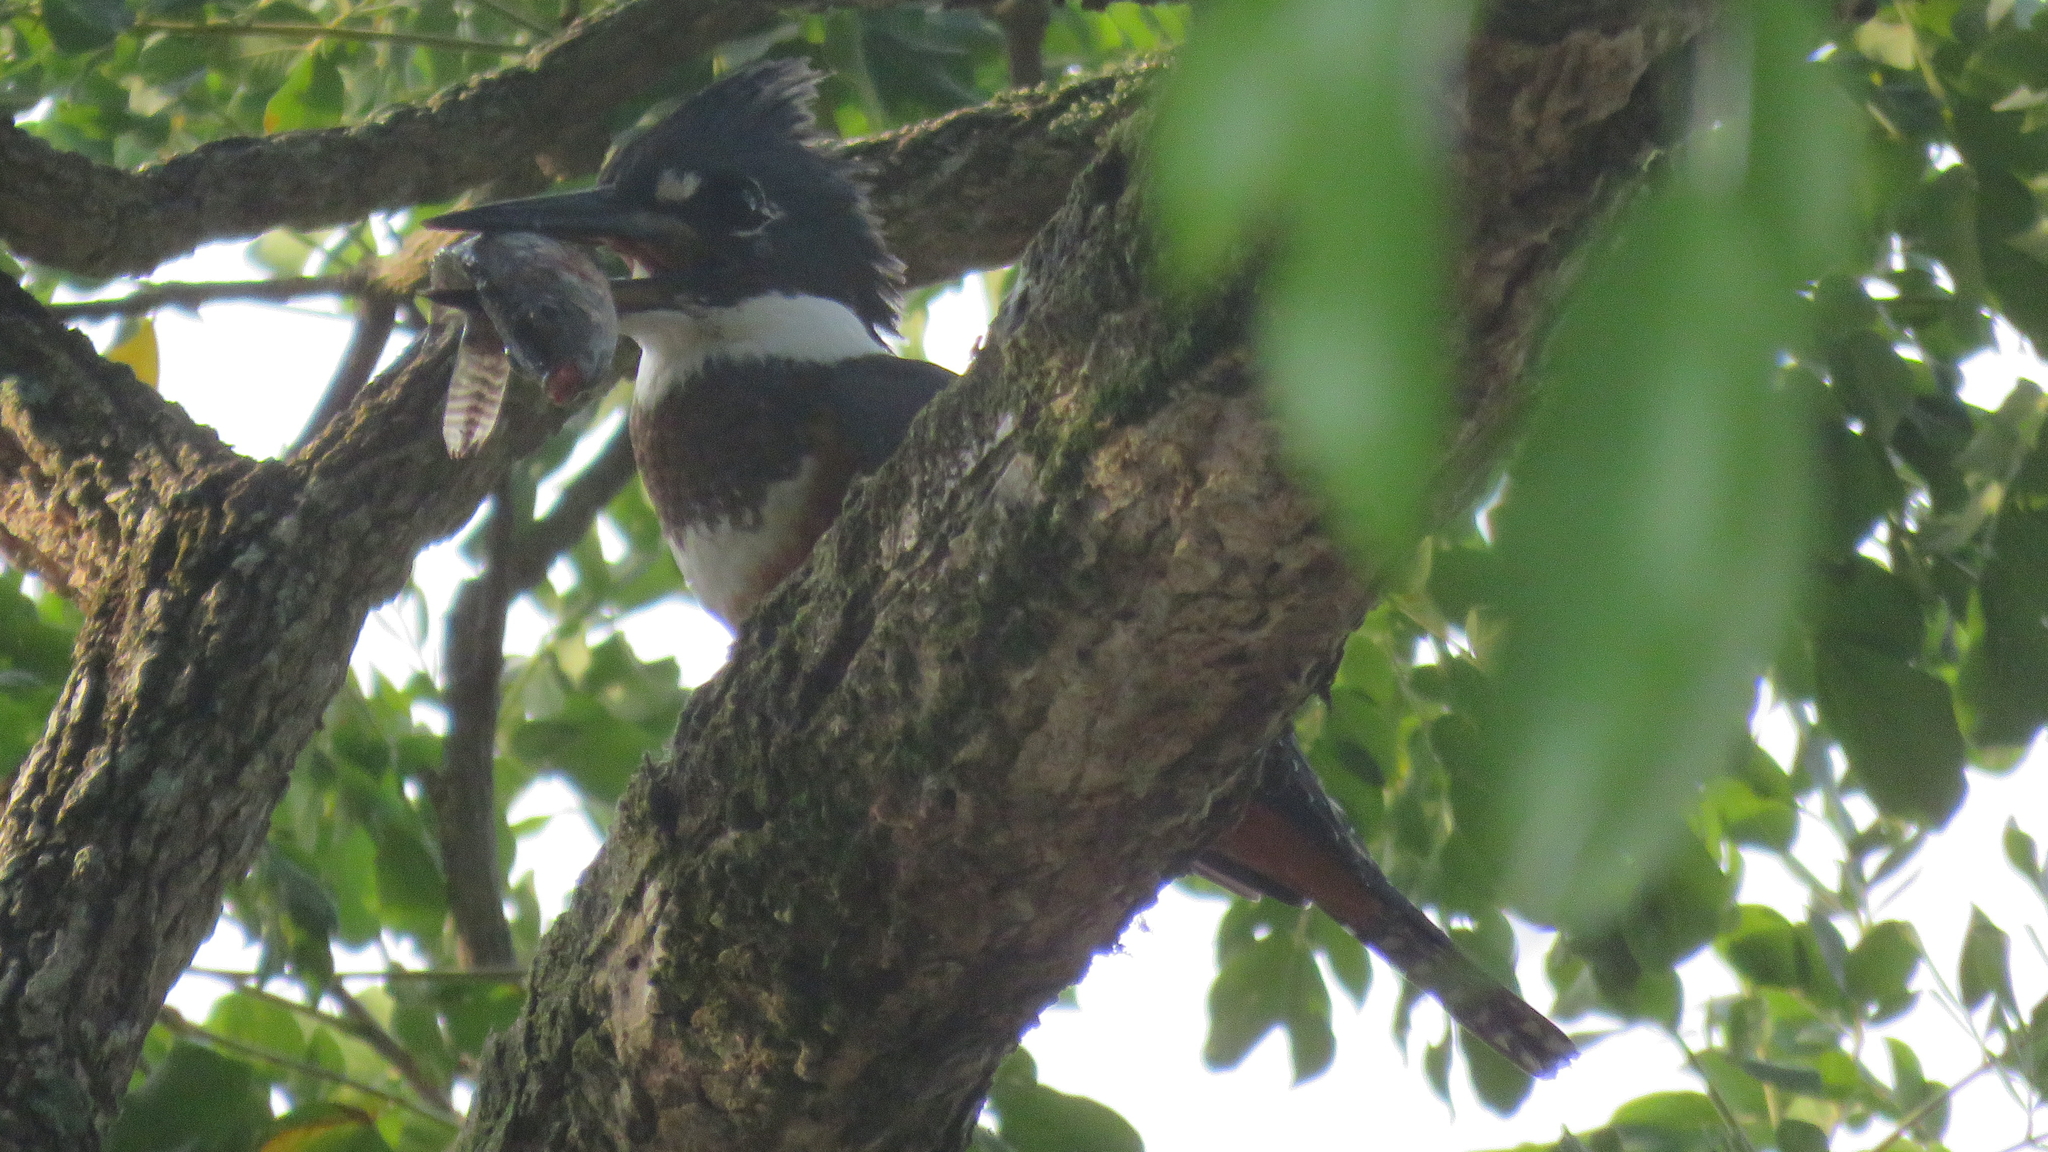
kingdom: Animalia
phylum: Chordata
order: Perciformes
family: Cichlidae
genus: Oreochromis
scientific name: Oreochromis niloticus
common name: Nile tilapia
